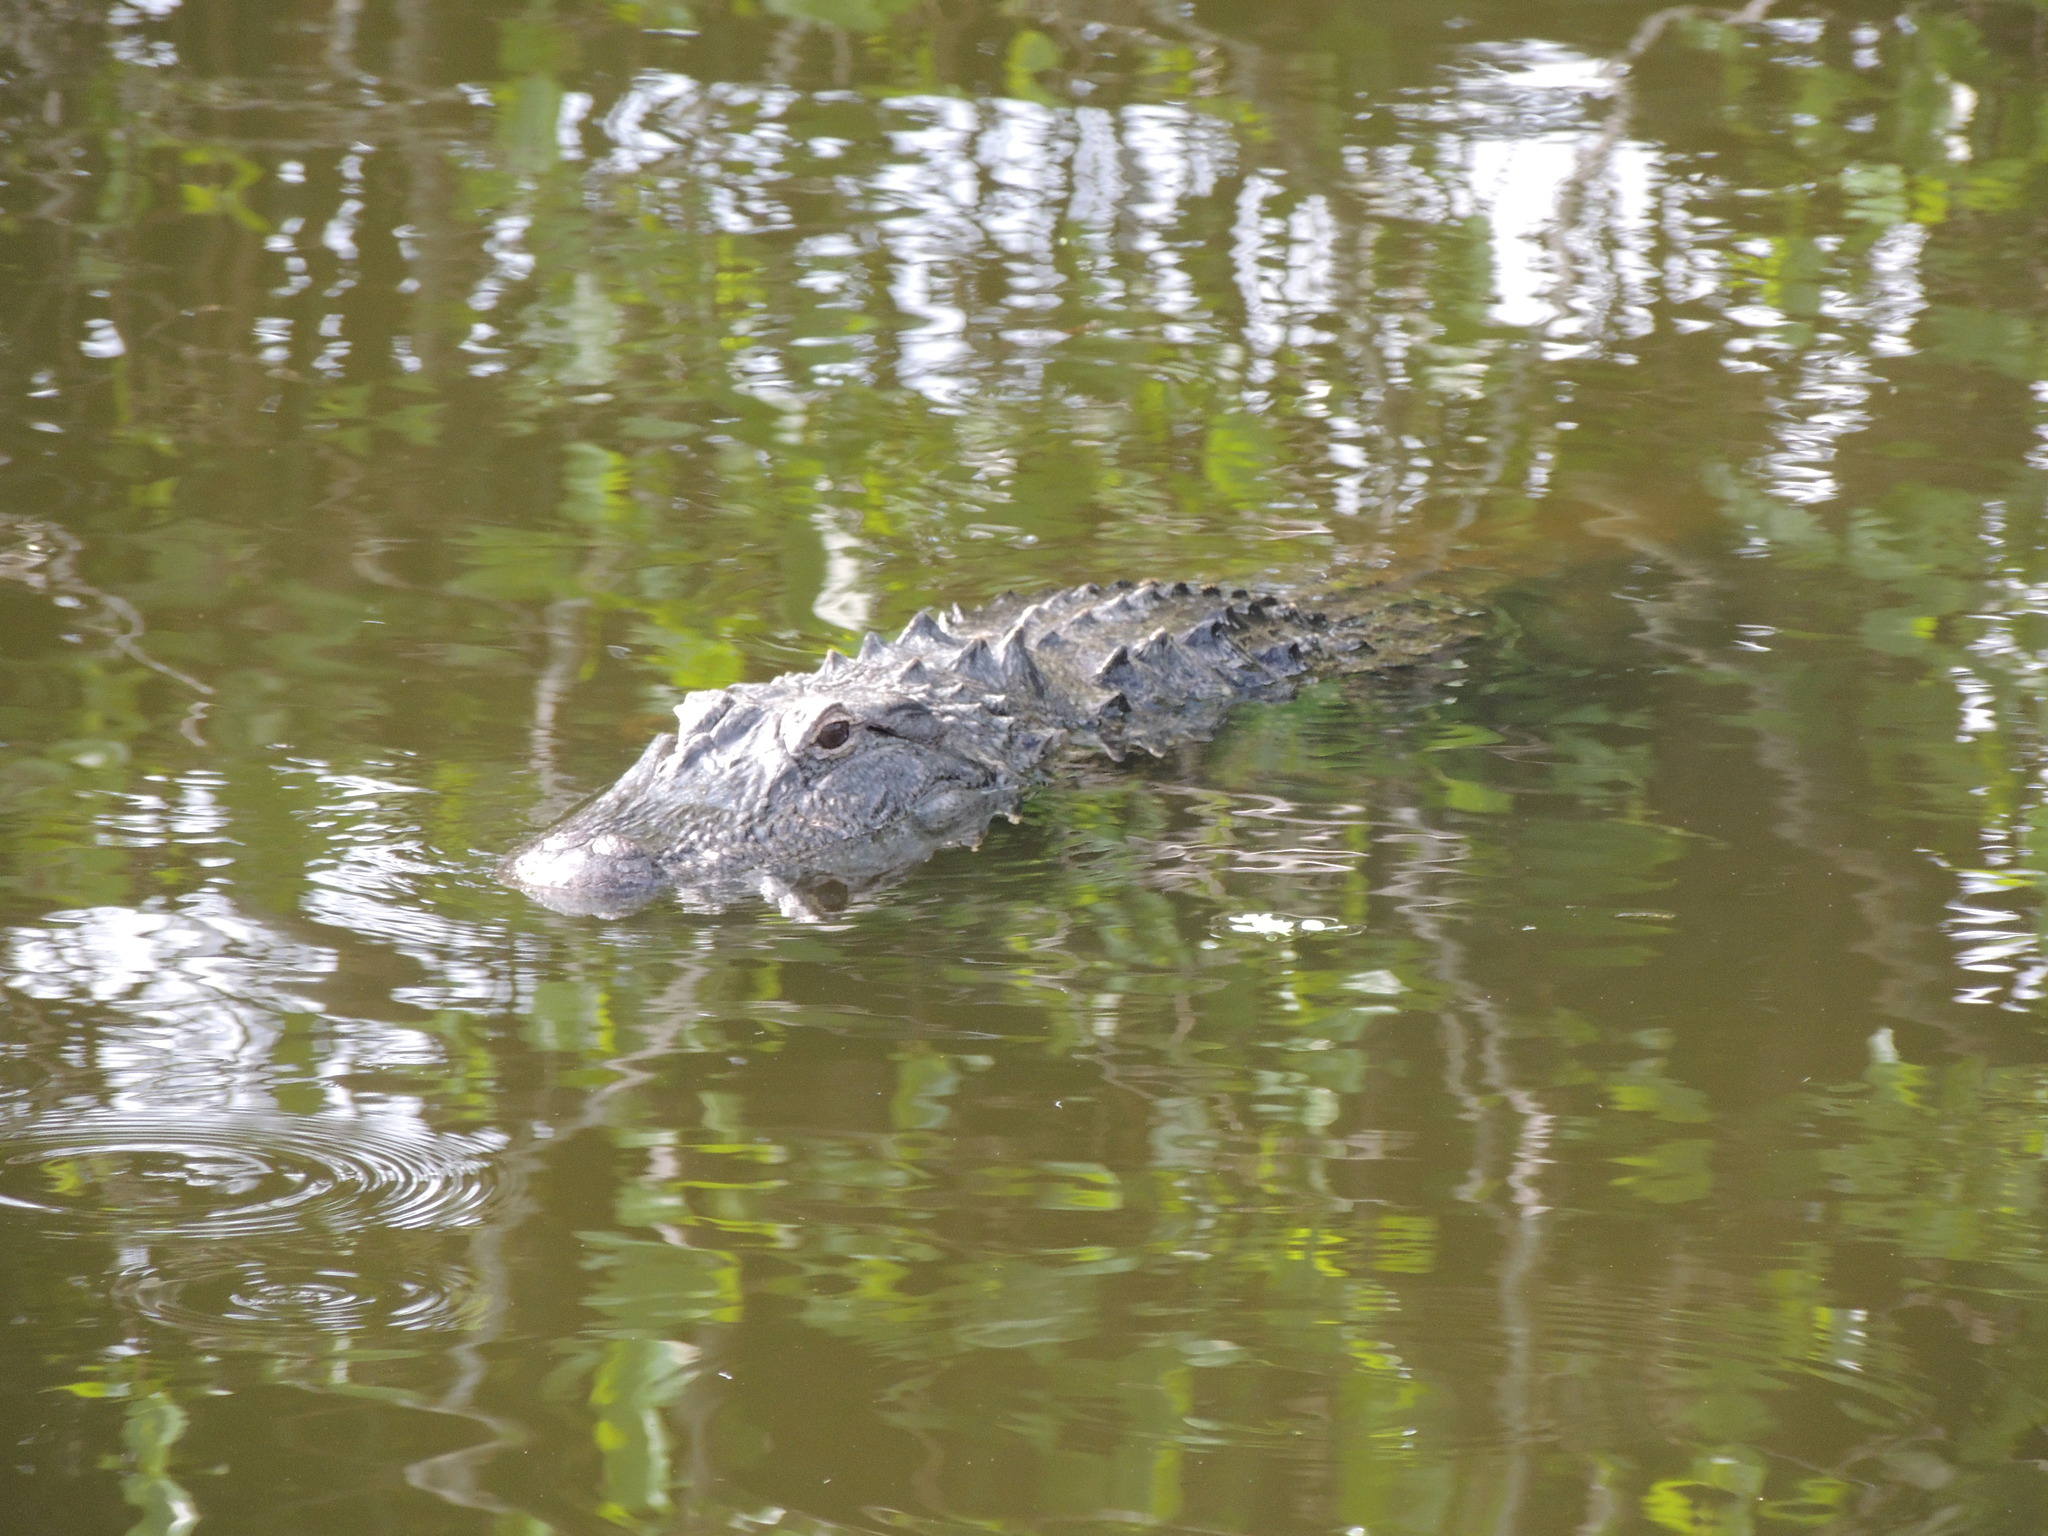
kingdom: Animalia
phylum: Chordata
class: Crocodylia
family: Alligatoridae
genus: Alligator
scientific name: Alligator mississippiensis
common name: American alligator
